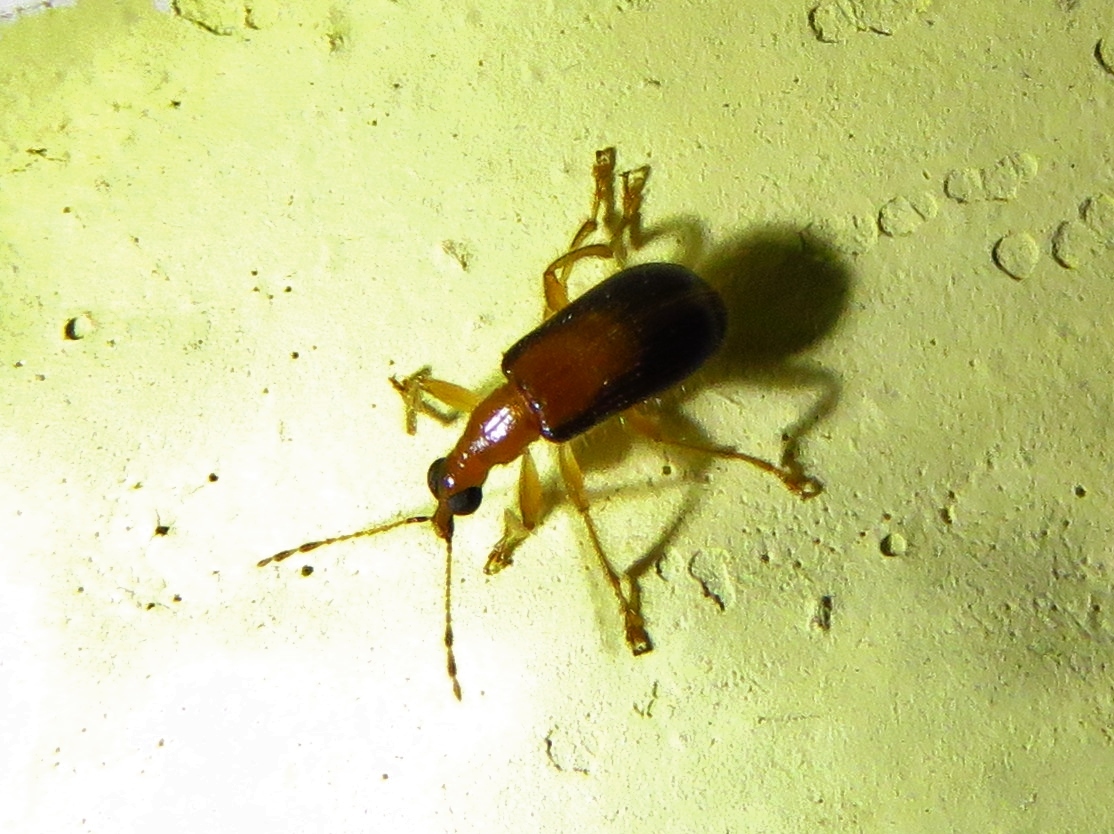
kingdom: Animalia
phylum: Arthropoda
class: Insecta
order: Coleoptera
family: Attelabidae
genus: Eugnamptus
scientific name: Eugnamptus cinctus
